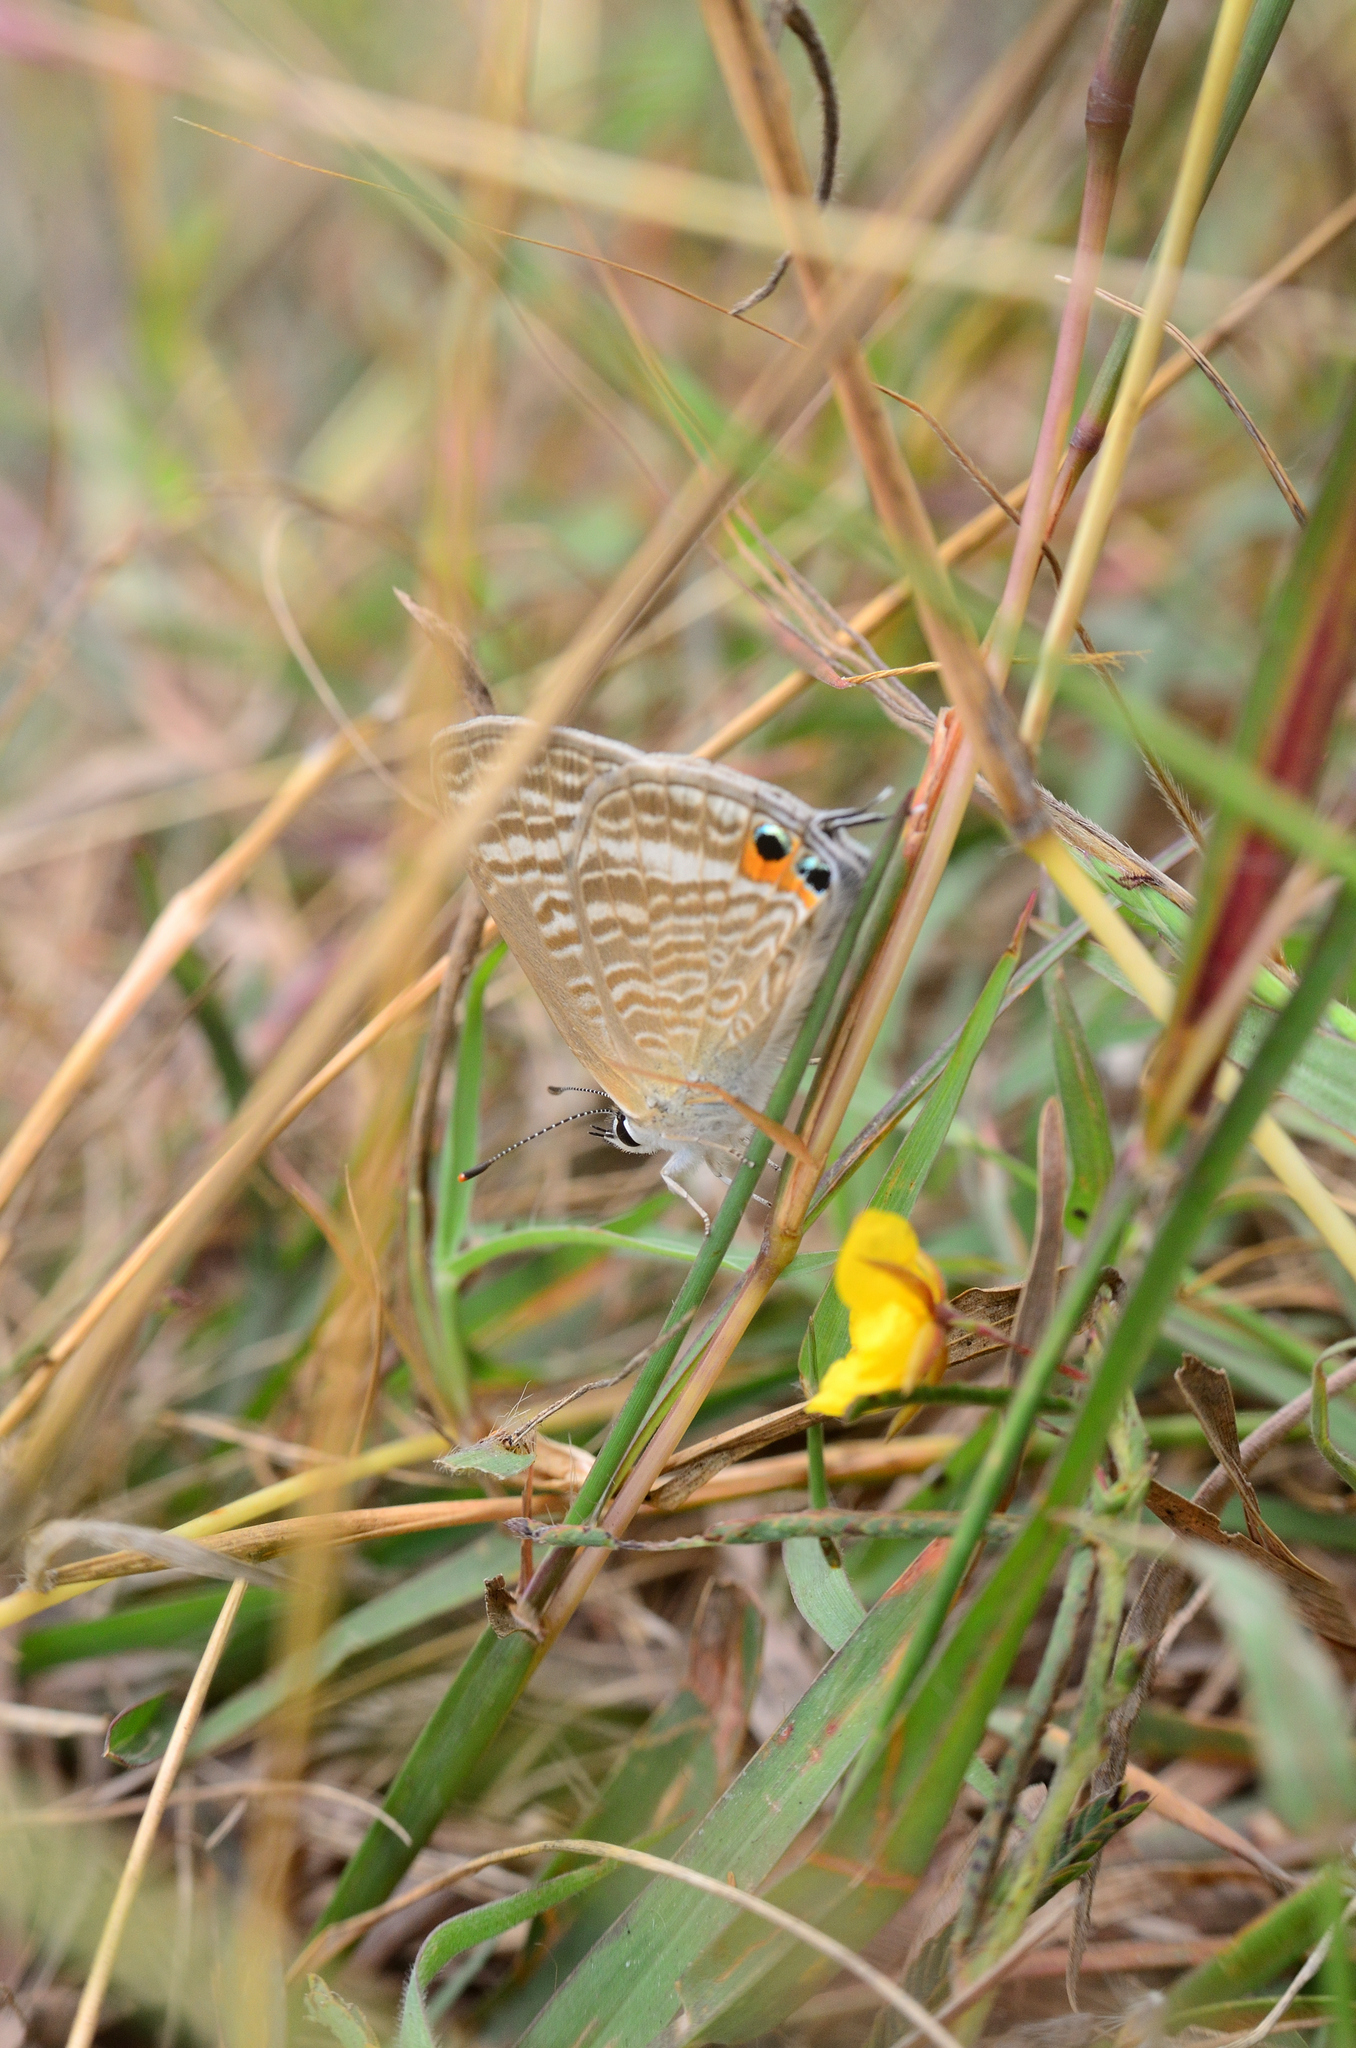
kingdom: Animalia
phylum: Arthropoda
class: Insecta
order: Lepidoptera
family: Lycaenidae
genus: Lampides
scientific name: Lampides boeticus
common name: Long-tailed blue
